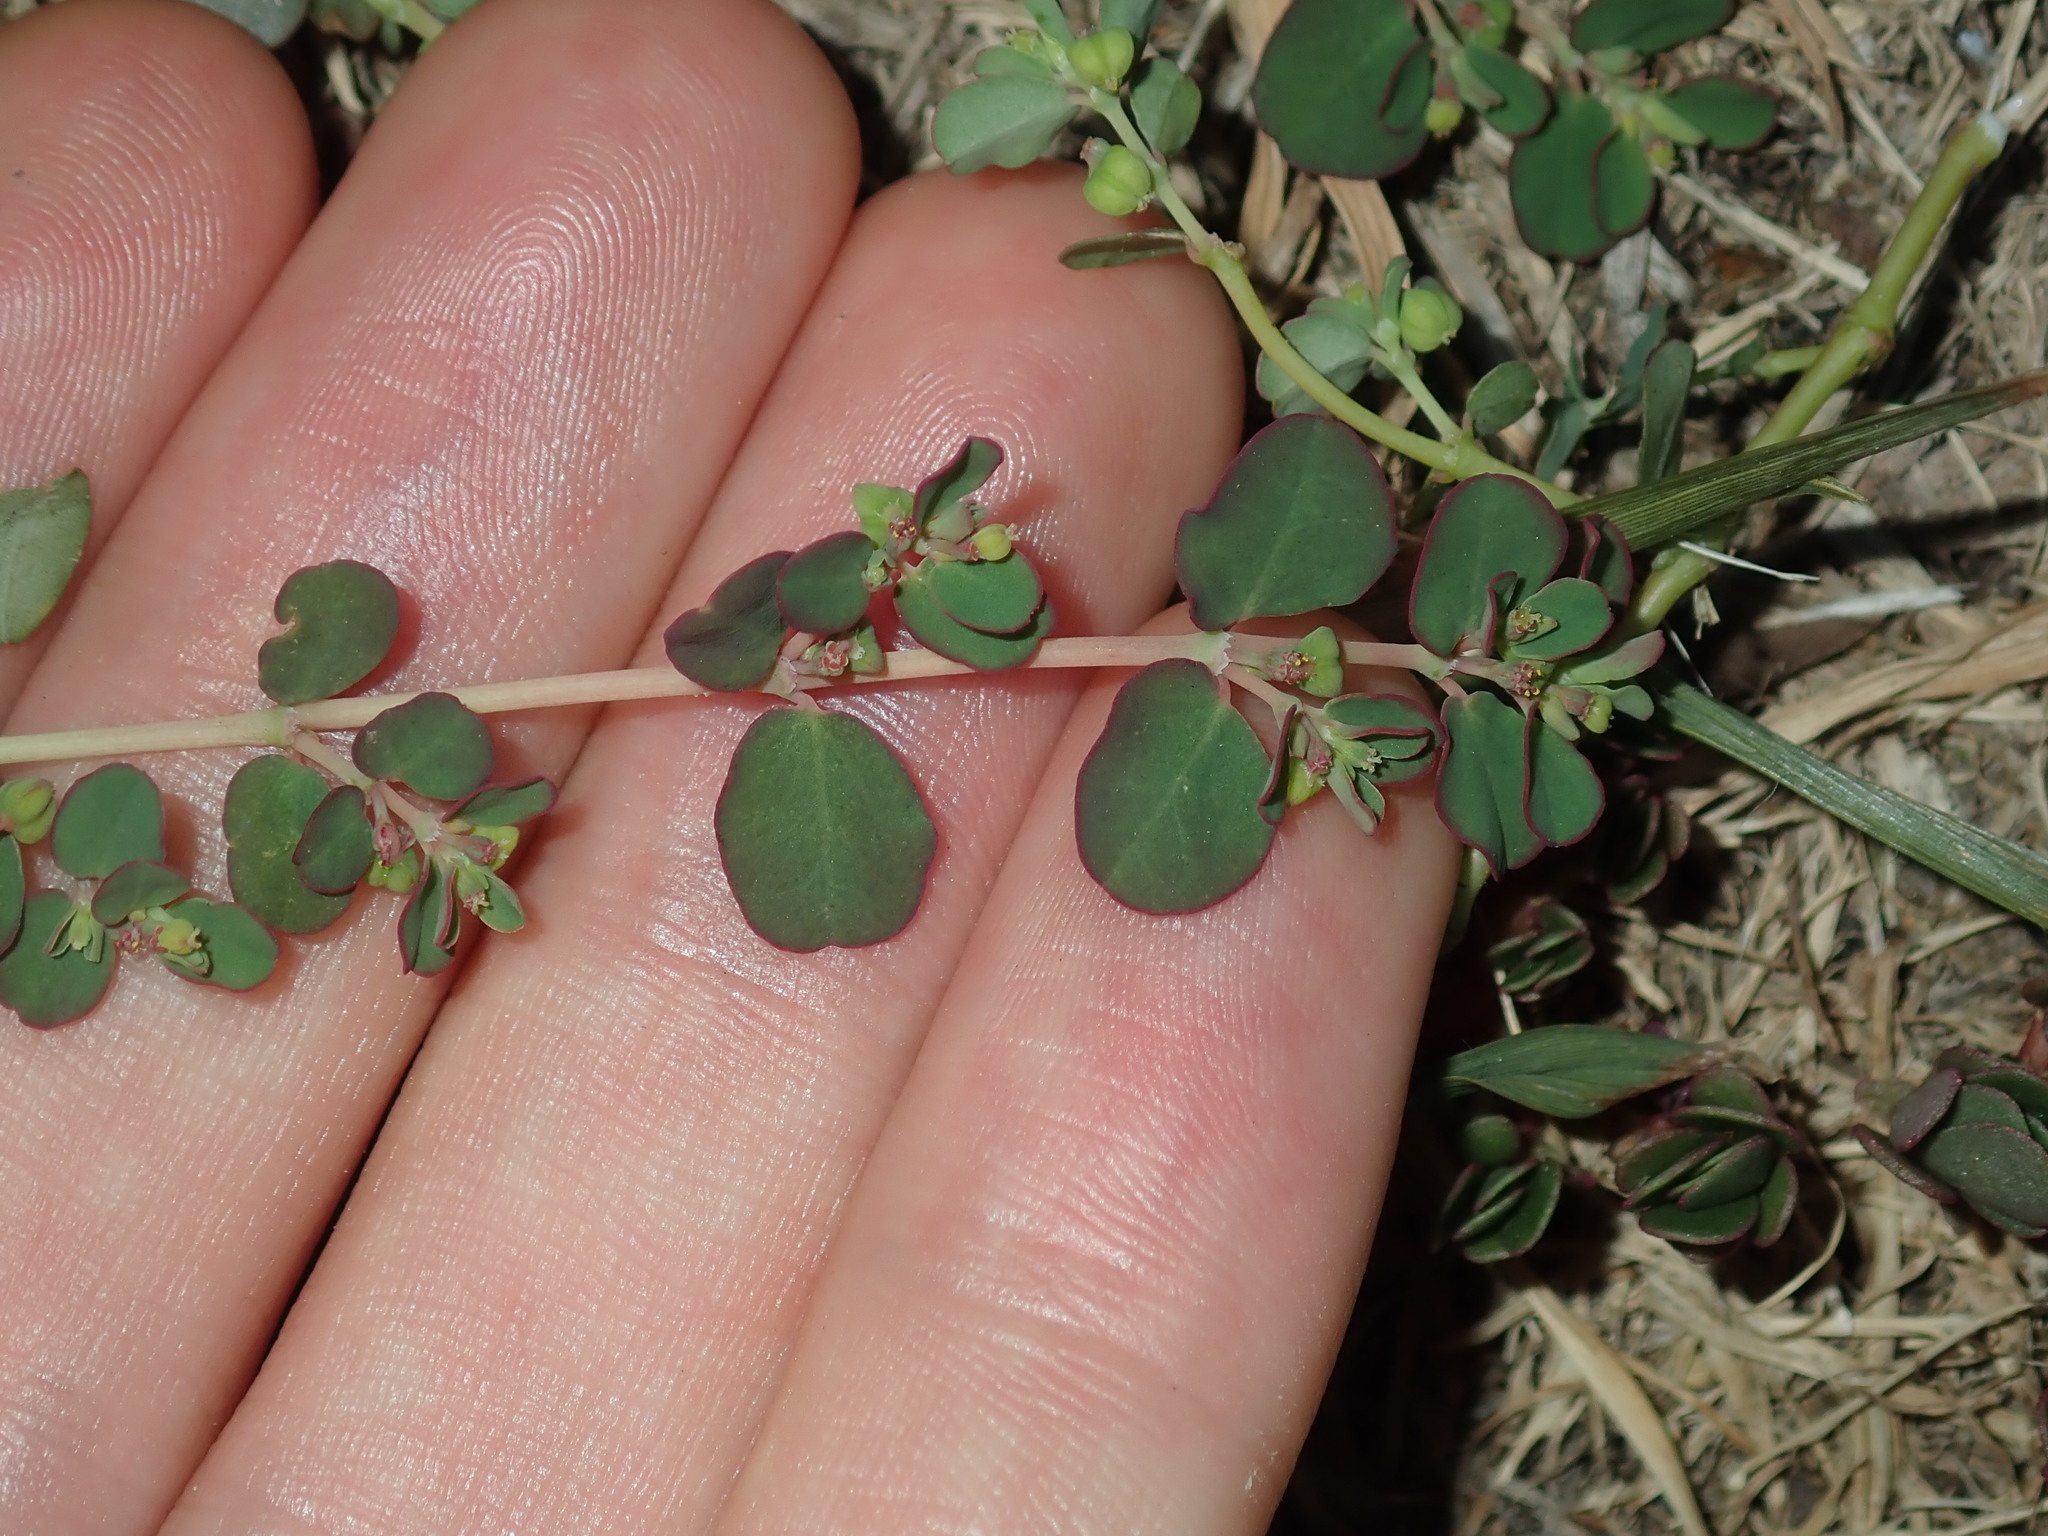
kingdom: Plantae
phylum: Tracheophyta
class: Magnoliopsida
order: Malpighiales
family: Euphorbiaceae
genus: Euphorbia
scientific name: Euphorbia serpens
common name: Matted sandmat
